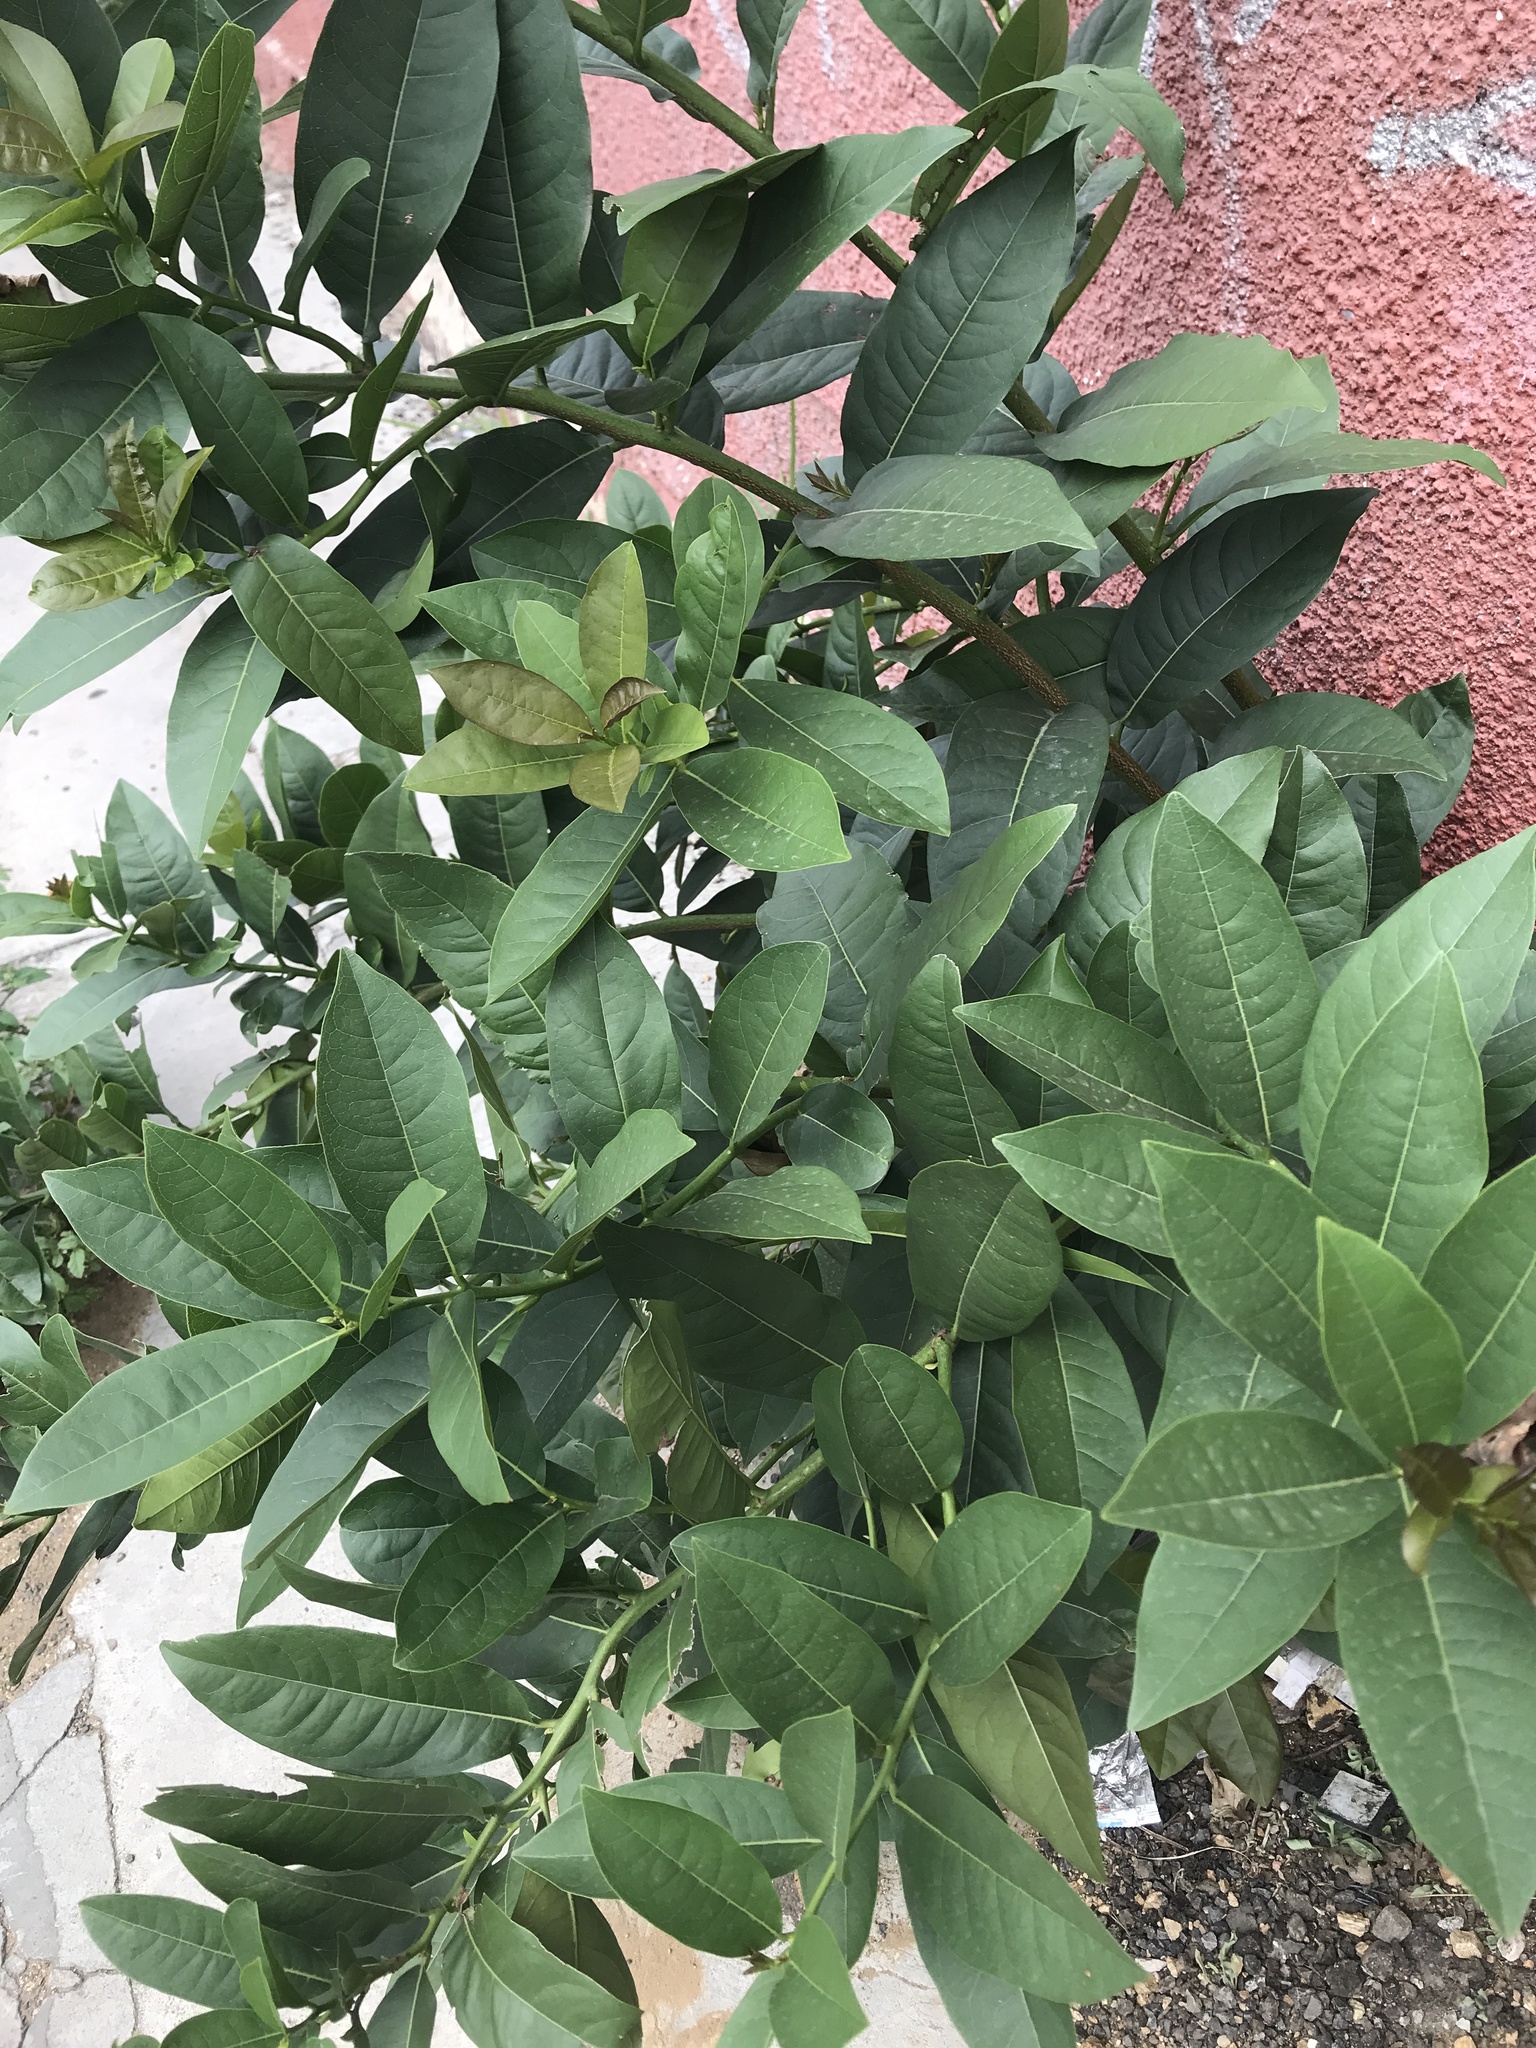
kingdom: Plantae
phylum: Tracheophyta
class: Magnoliopsida
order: Boraginales
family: Ehretiaceae
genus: Ehretia
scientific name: Ehretia tinifolia
